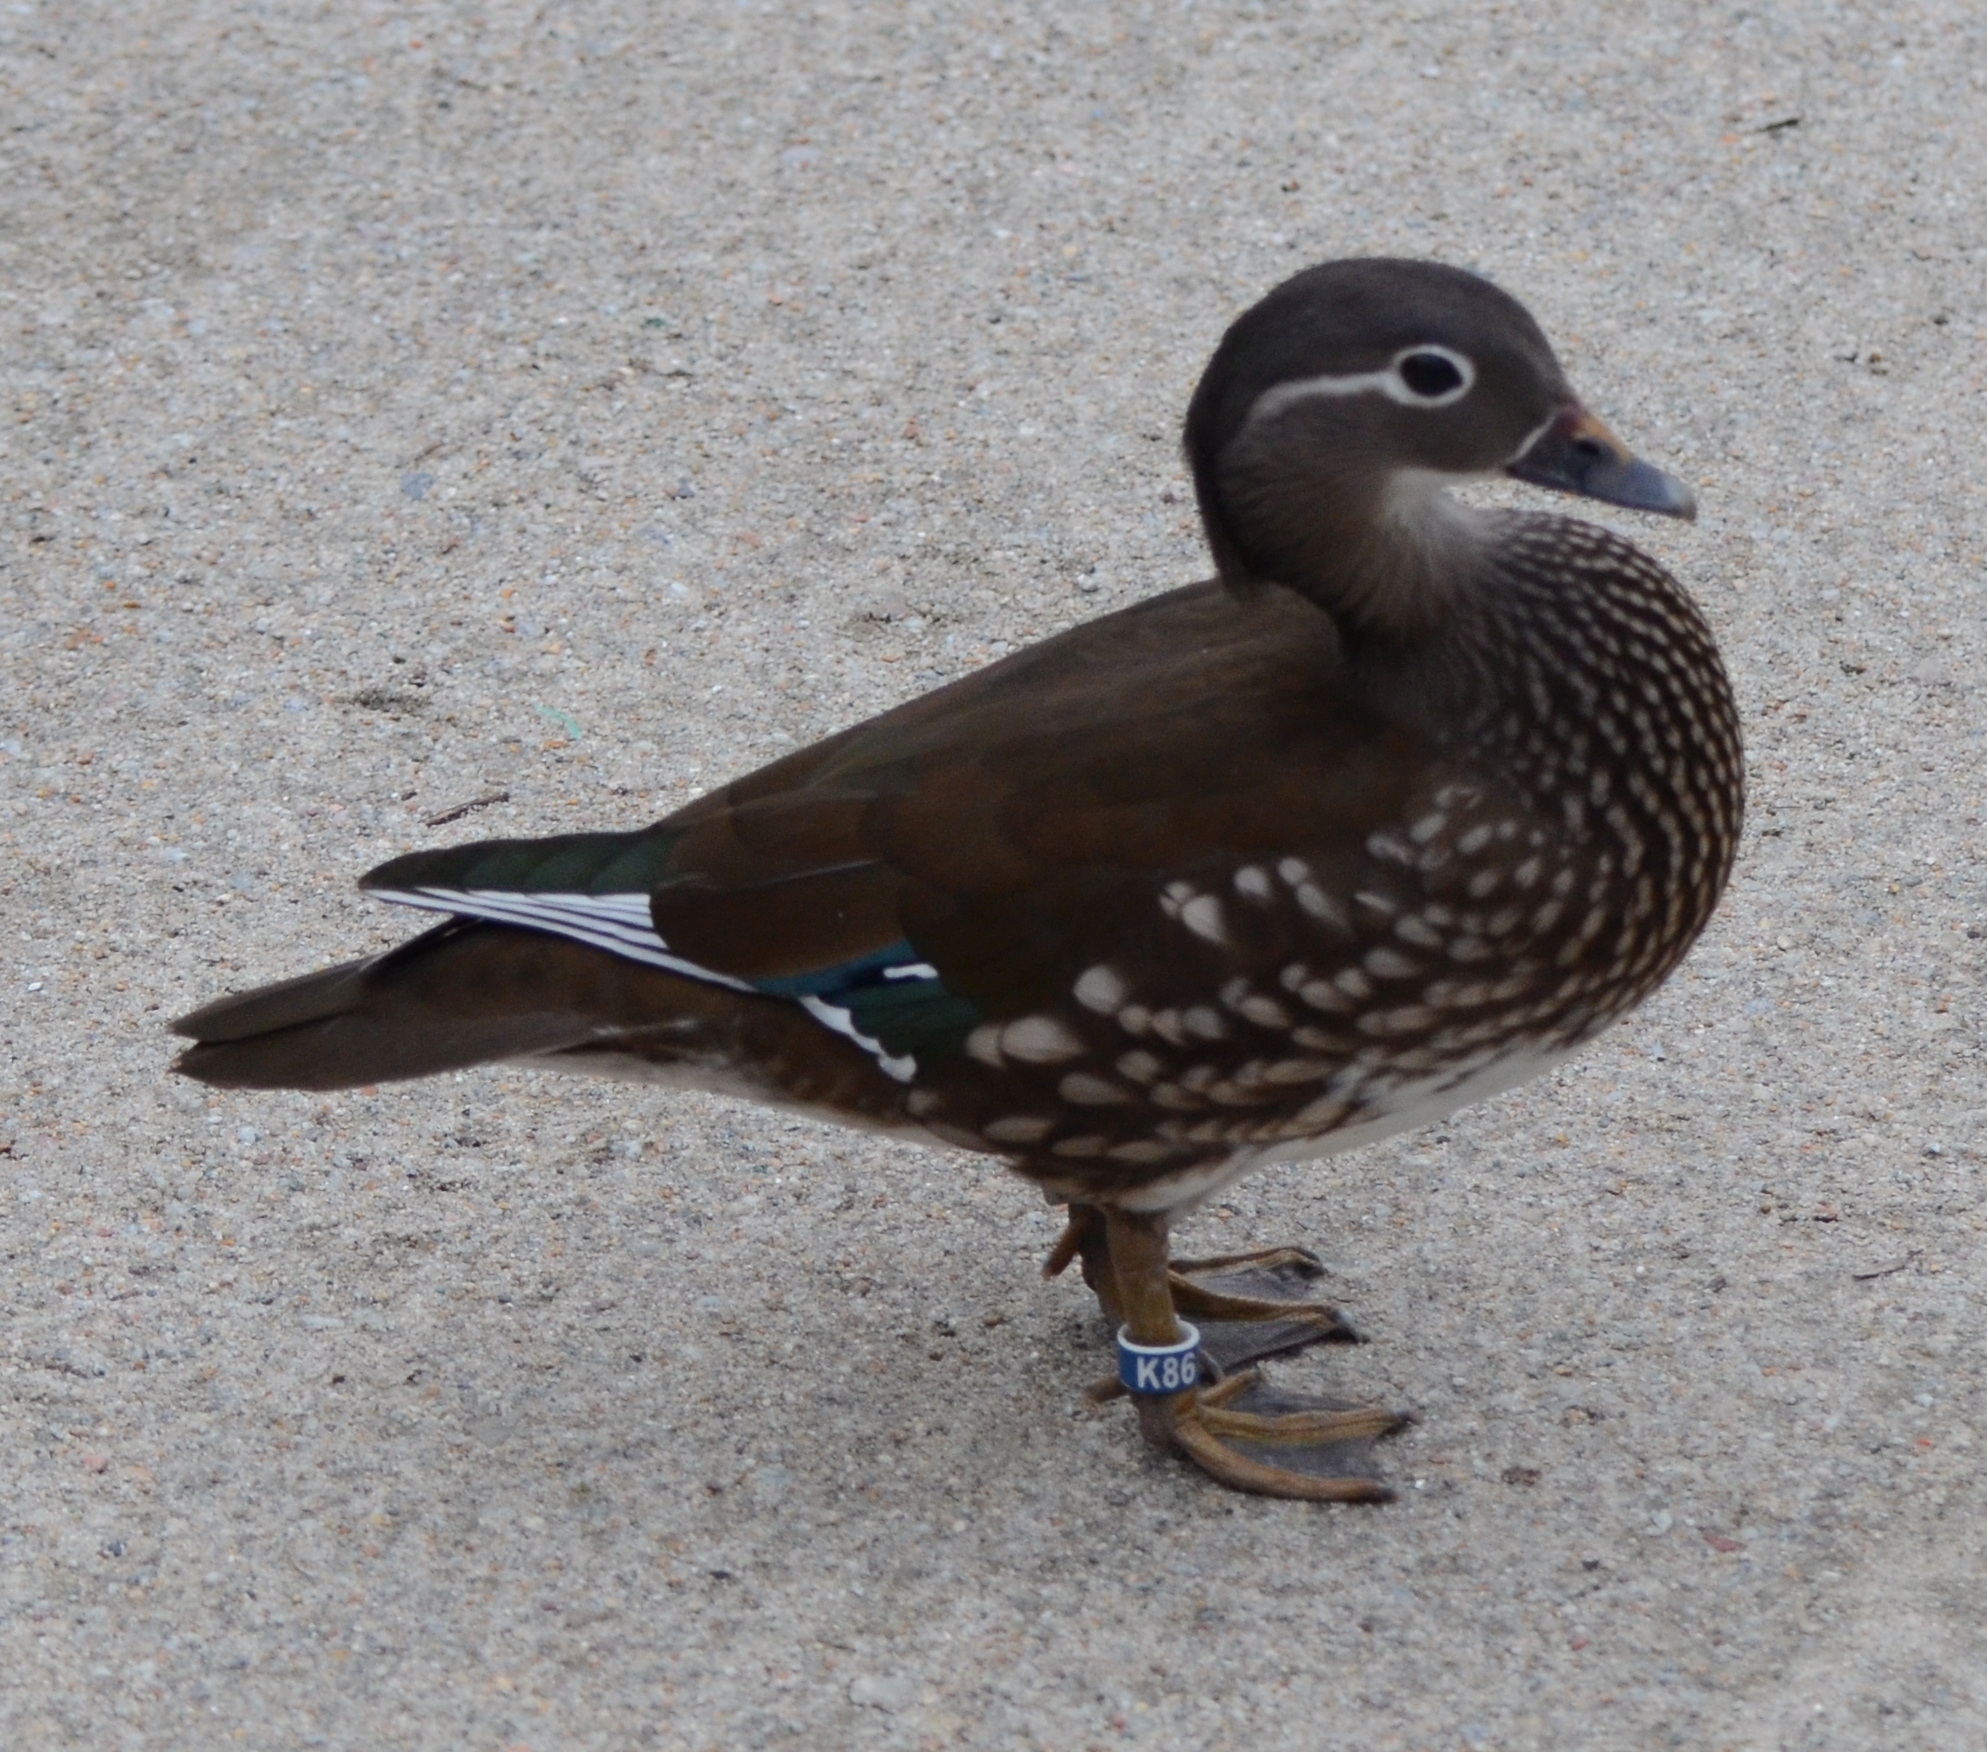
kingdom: Animalia
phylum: Chordata
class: Aves
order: Anseriformes
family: Anatidae
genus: Aix
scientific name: Aix galericulata
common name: Mandarin duck
